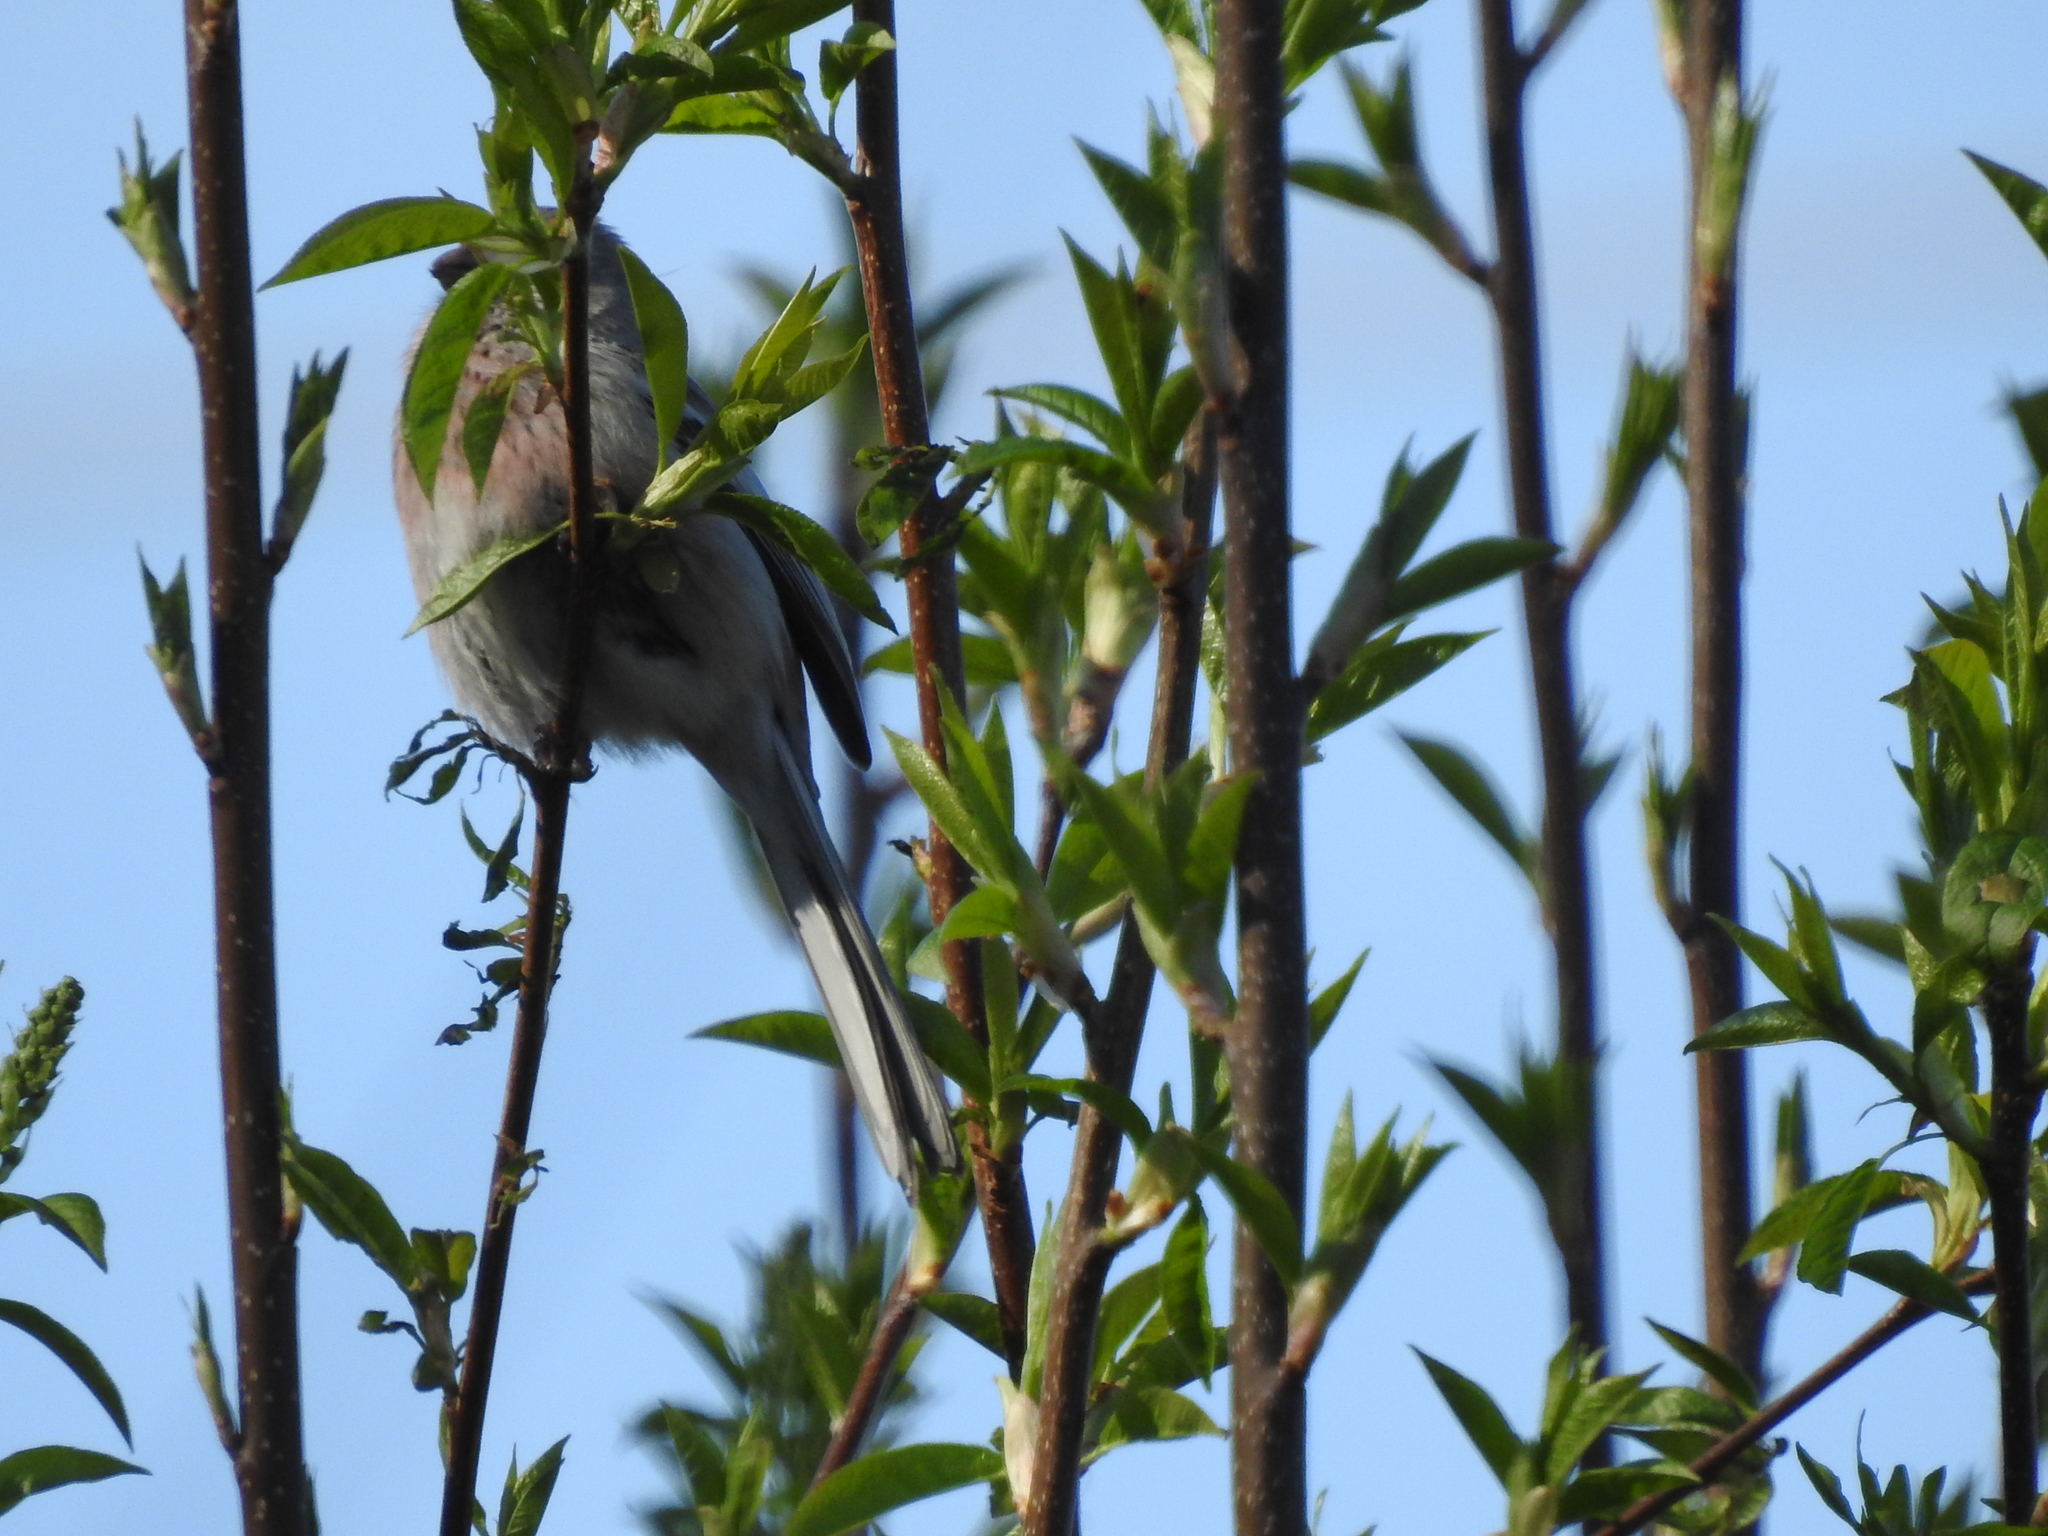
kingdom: Animalia
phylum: Chordata
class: Aves
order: Passeriformes
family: Fringillidae
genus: Carpodacus
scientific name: Carpodacus sibiricus
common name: Long-tailed rosefinch
